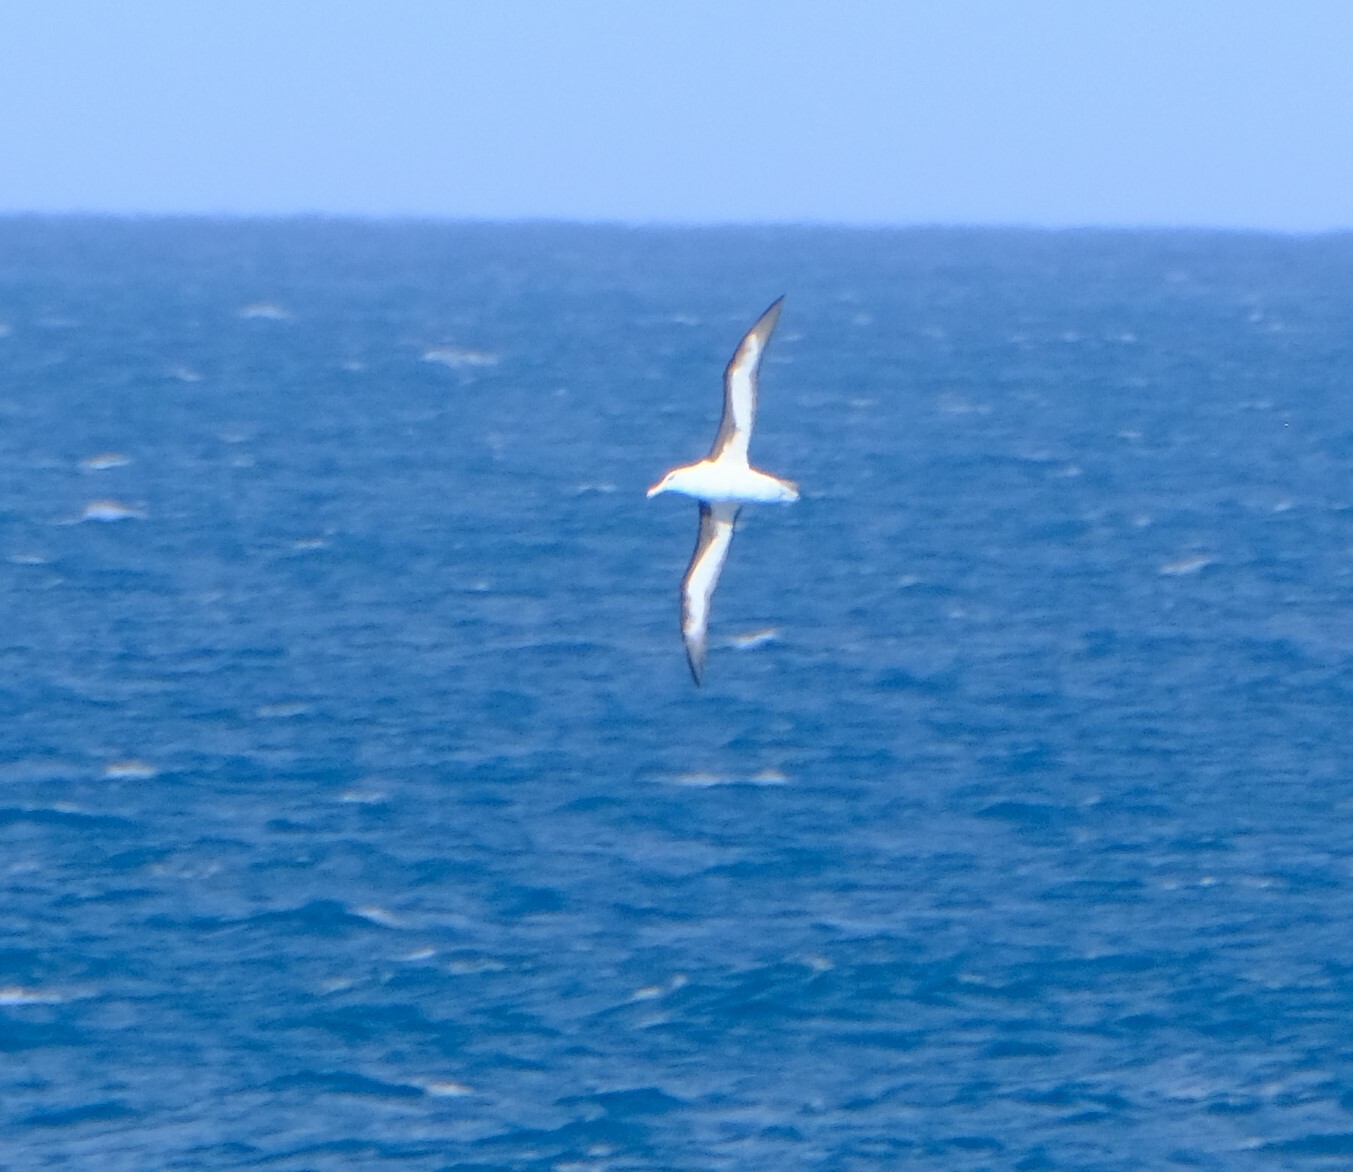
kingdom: Animalia
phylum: Chordata
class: Aves
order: Procellariiformes
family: Diomedeidae
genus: Thalassarche
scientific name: Thalassarche melanophris
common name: Black-browed albatross
